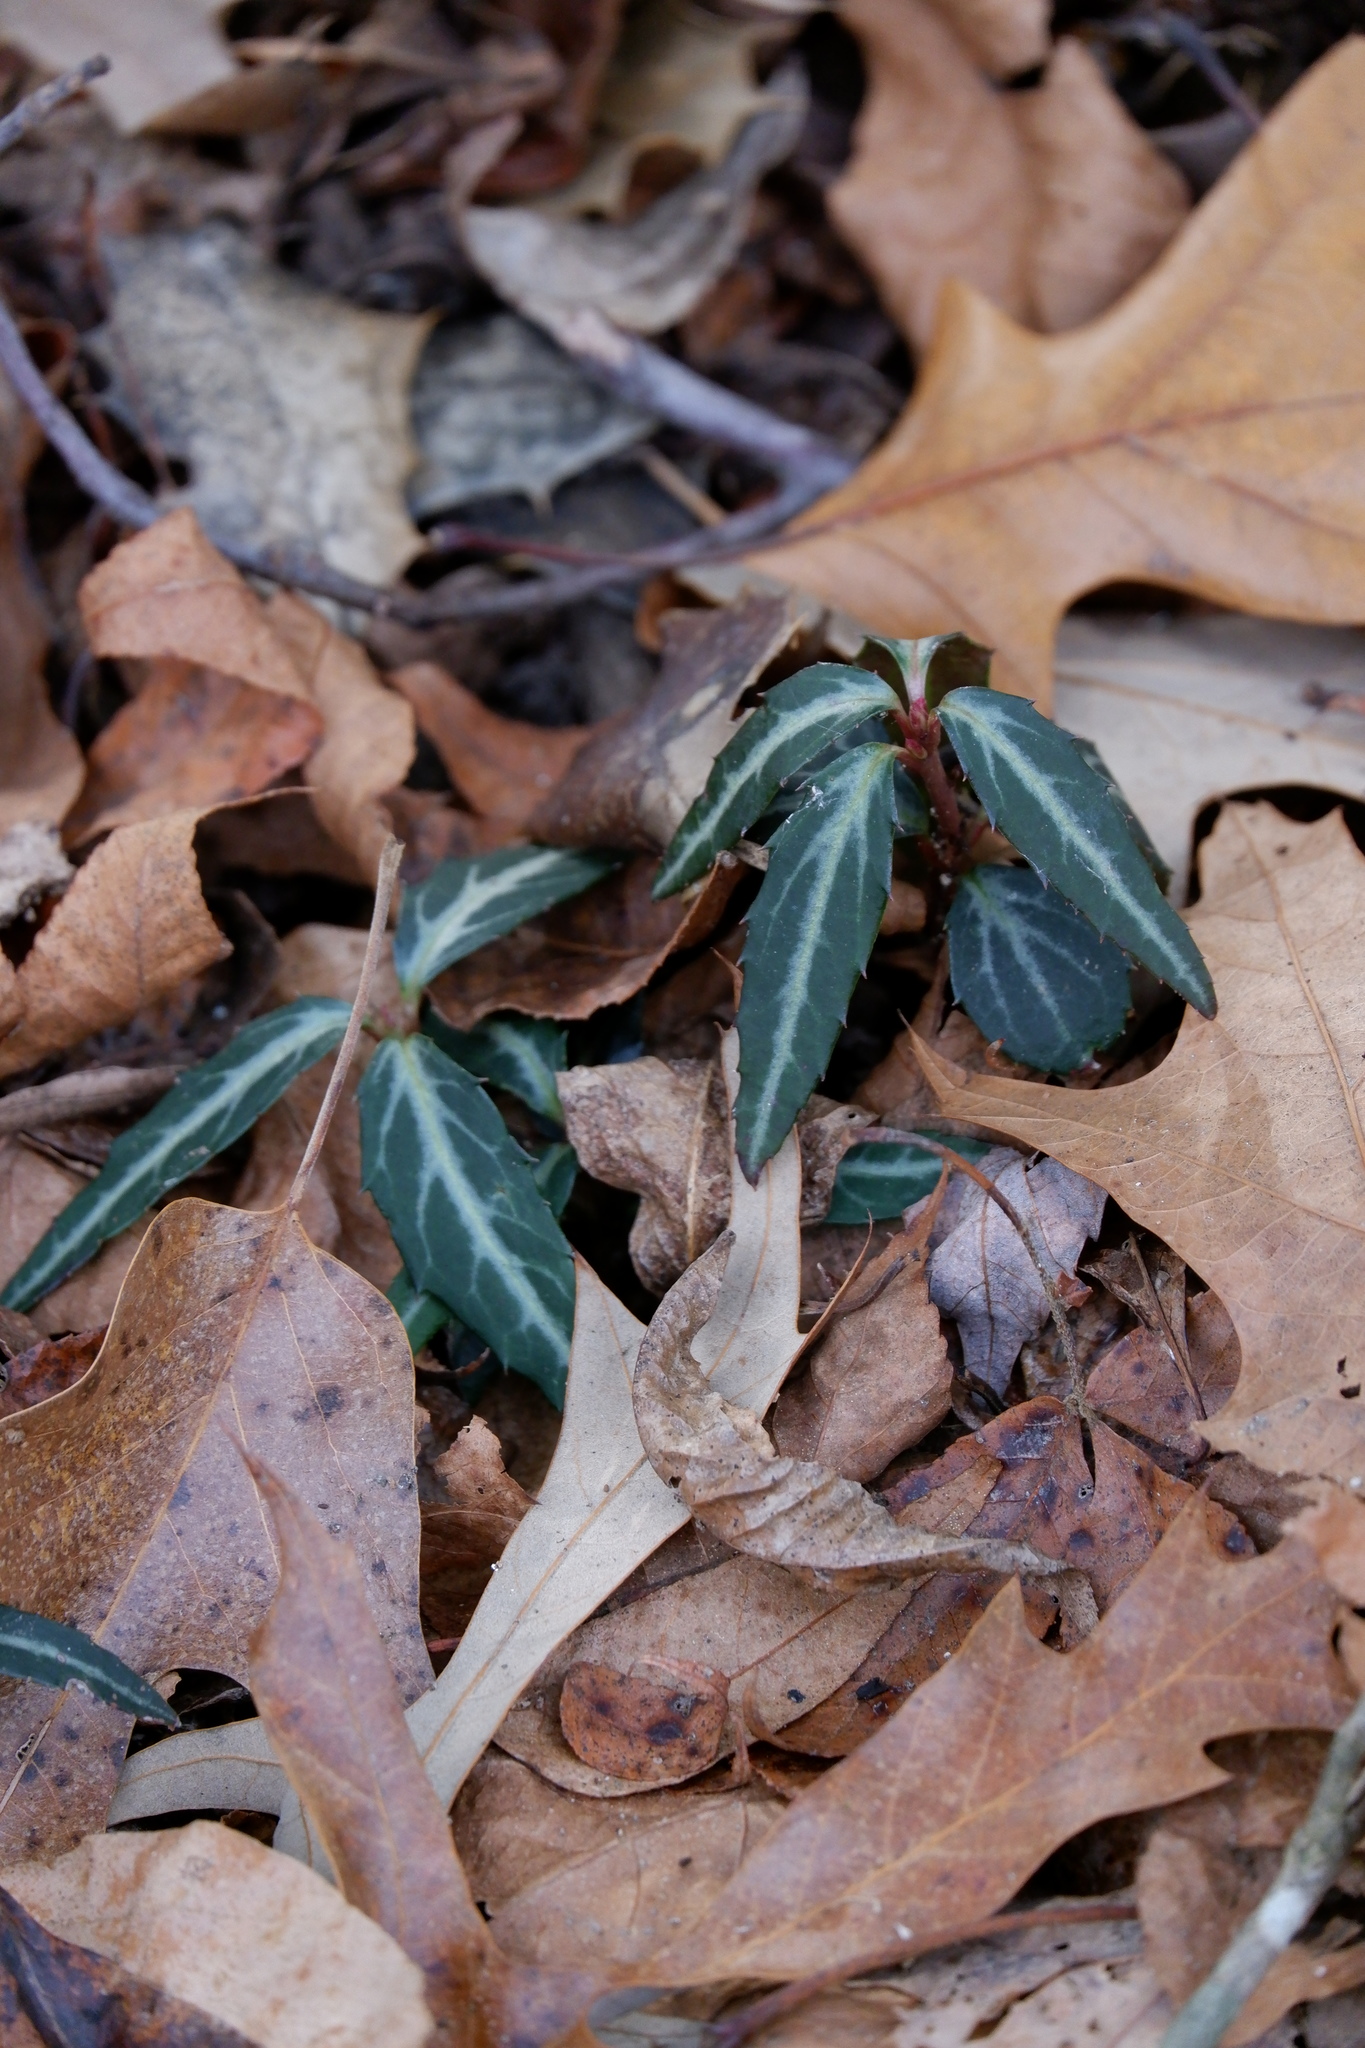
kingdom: Plantae
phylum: Tracheophyta
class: Magnoliopsida
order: Ericales
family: Ericaceae
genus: Chimaphila
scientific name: Chimaphila maculata
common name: Spotted pipsissewa
